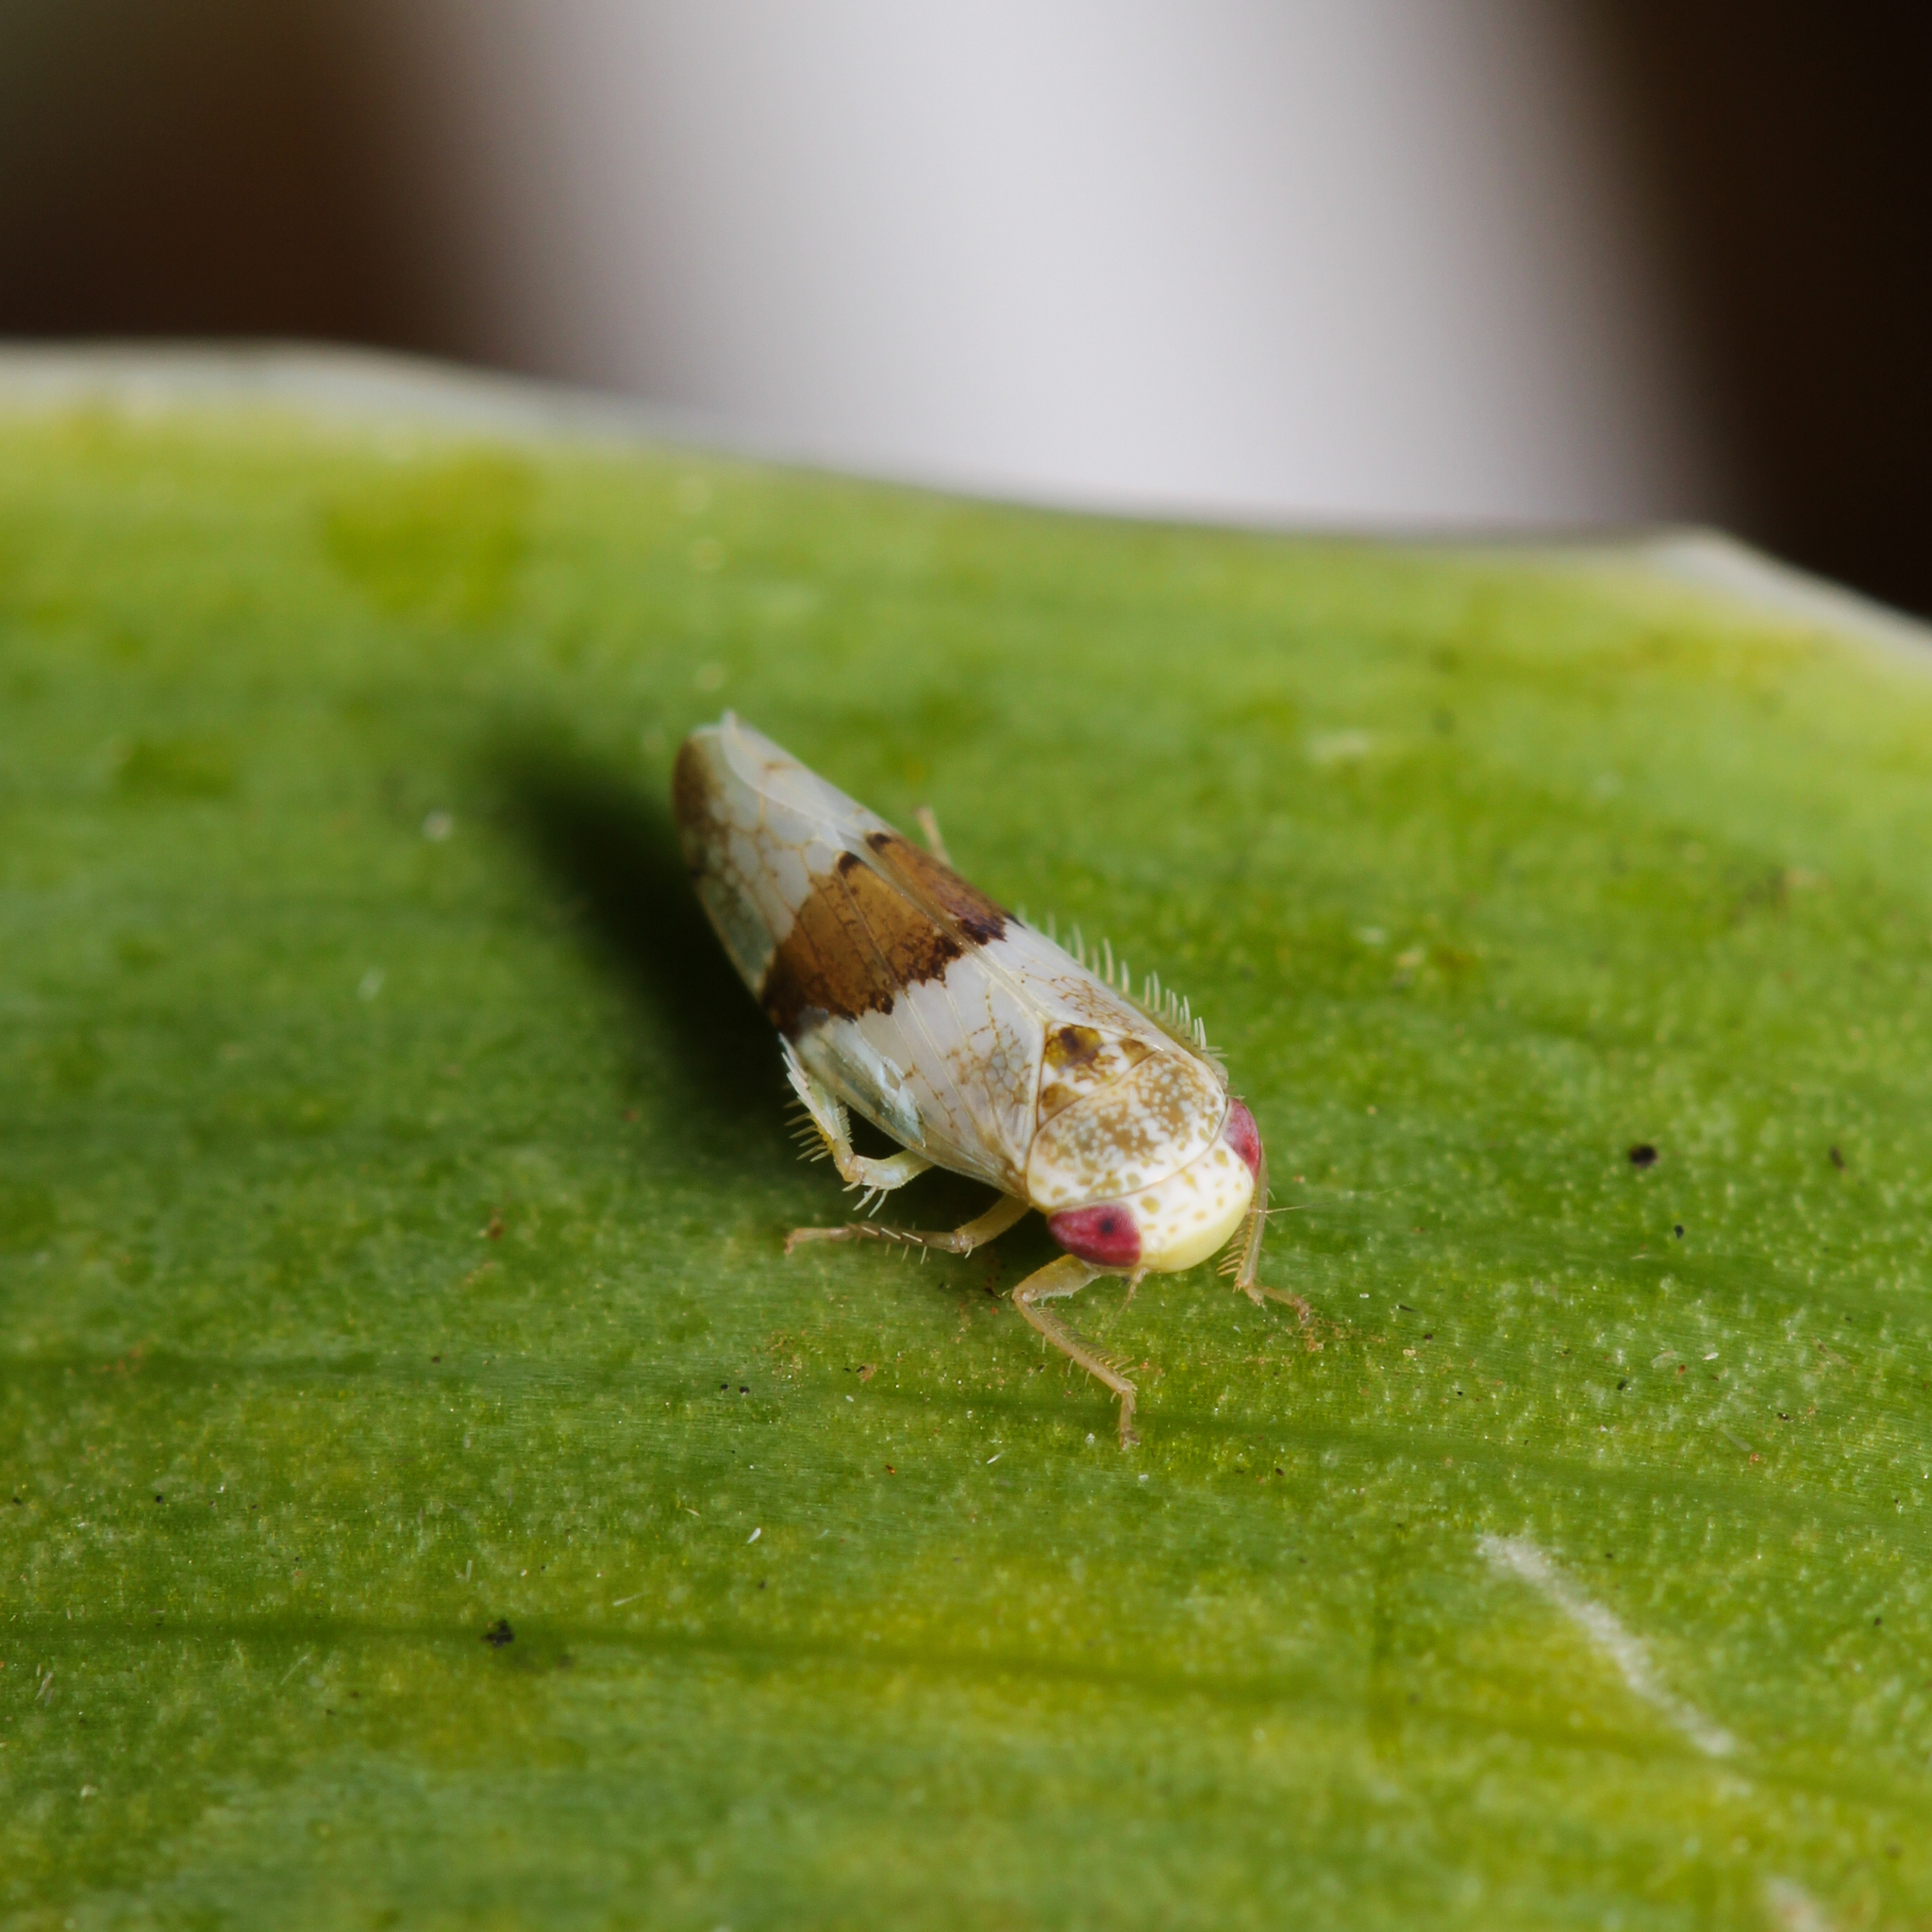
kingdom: Animalia
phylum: Arthropoda
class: Insecta
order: Hemiptera
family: Cicadellidae
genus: Norvellina
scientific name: Norvellina seminuda
